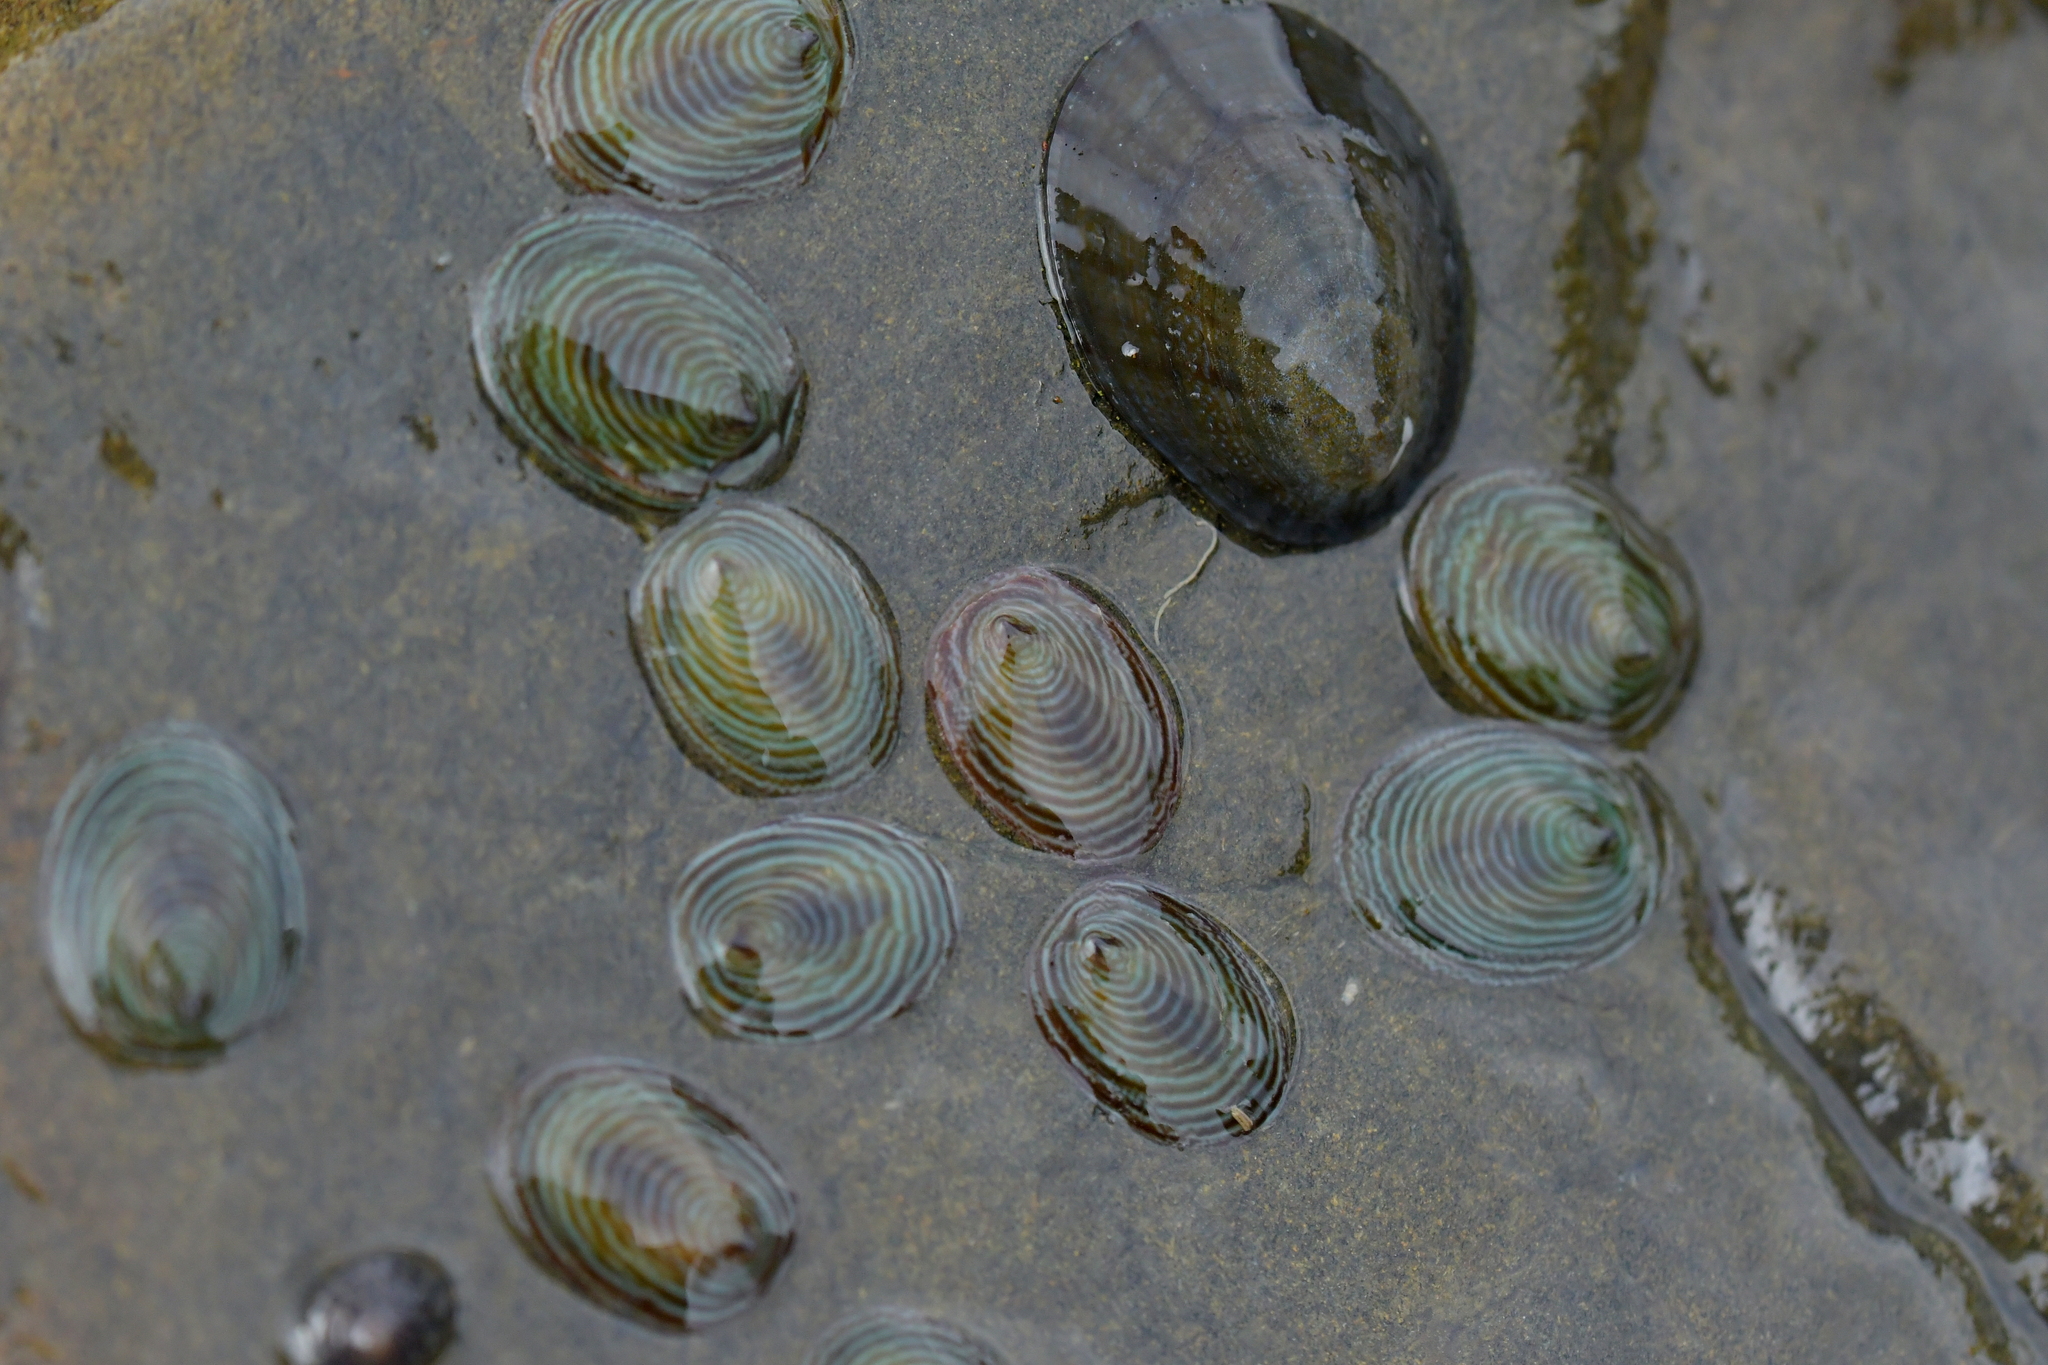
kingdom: Animalia
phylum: Mollusca
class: Gastropoda
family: Lottiidae
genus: Atalacmea
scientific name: Atalacmea fragilis
